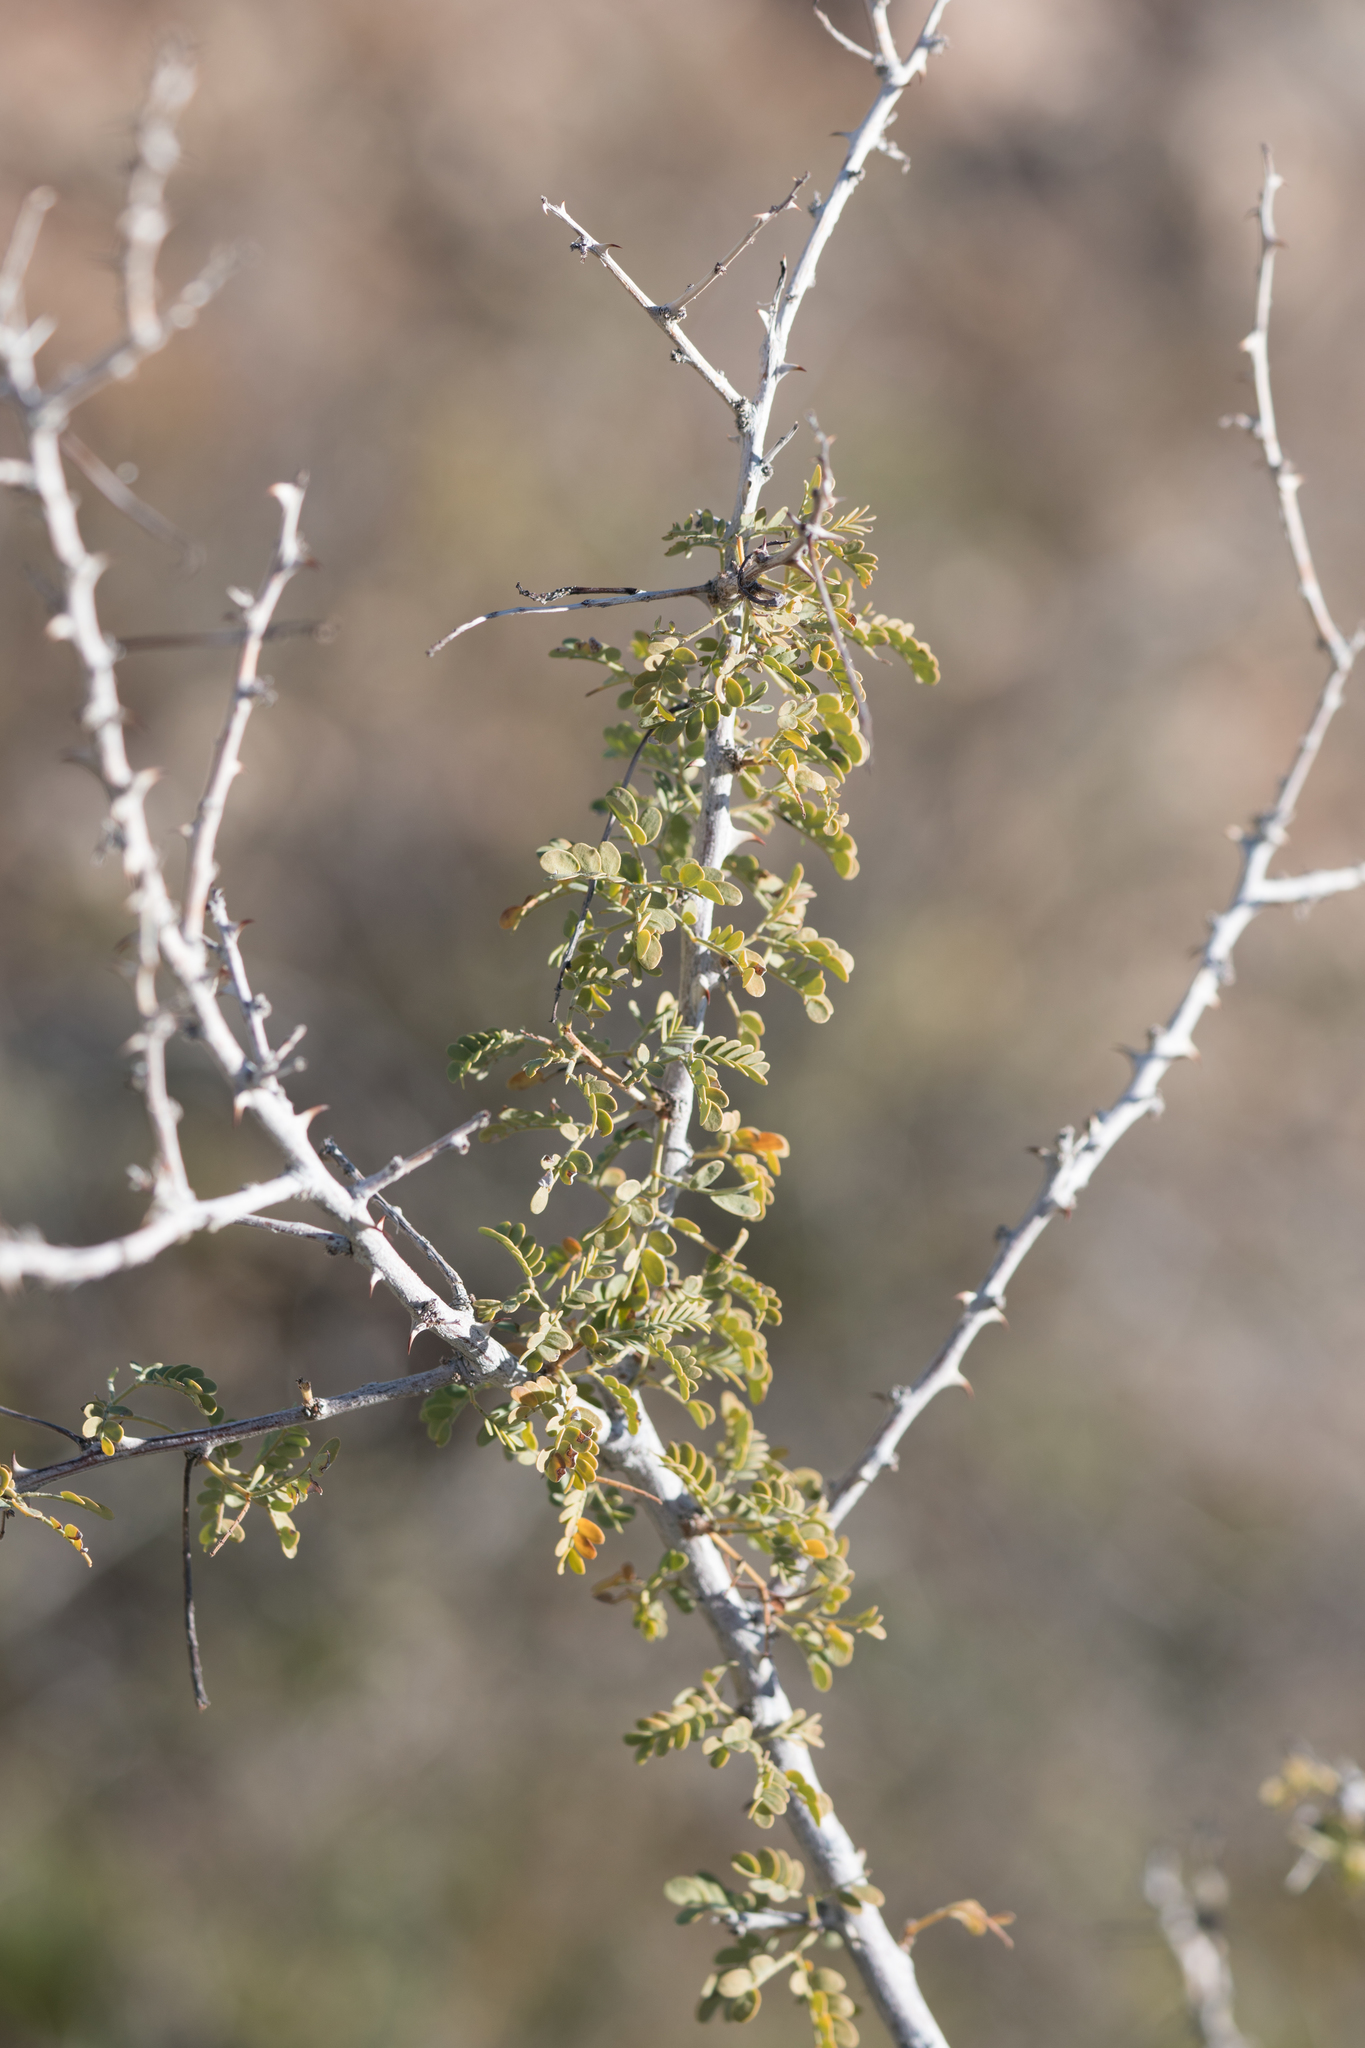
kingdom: Plantae
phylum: Tracheophyta
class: Magnoliopsida
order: Fabales
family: Fabaceae
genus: Senegalia
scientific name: Senegalia greggii
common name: Texas-mimosa
